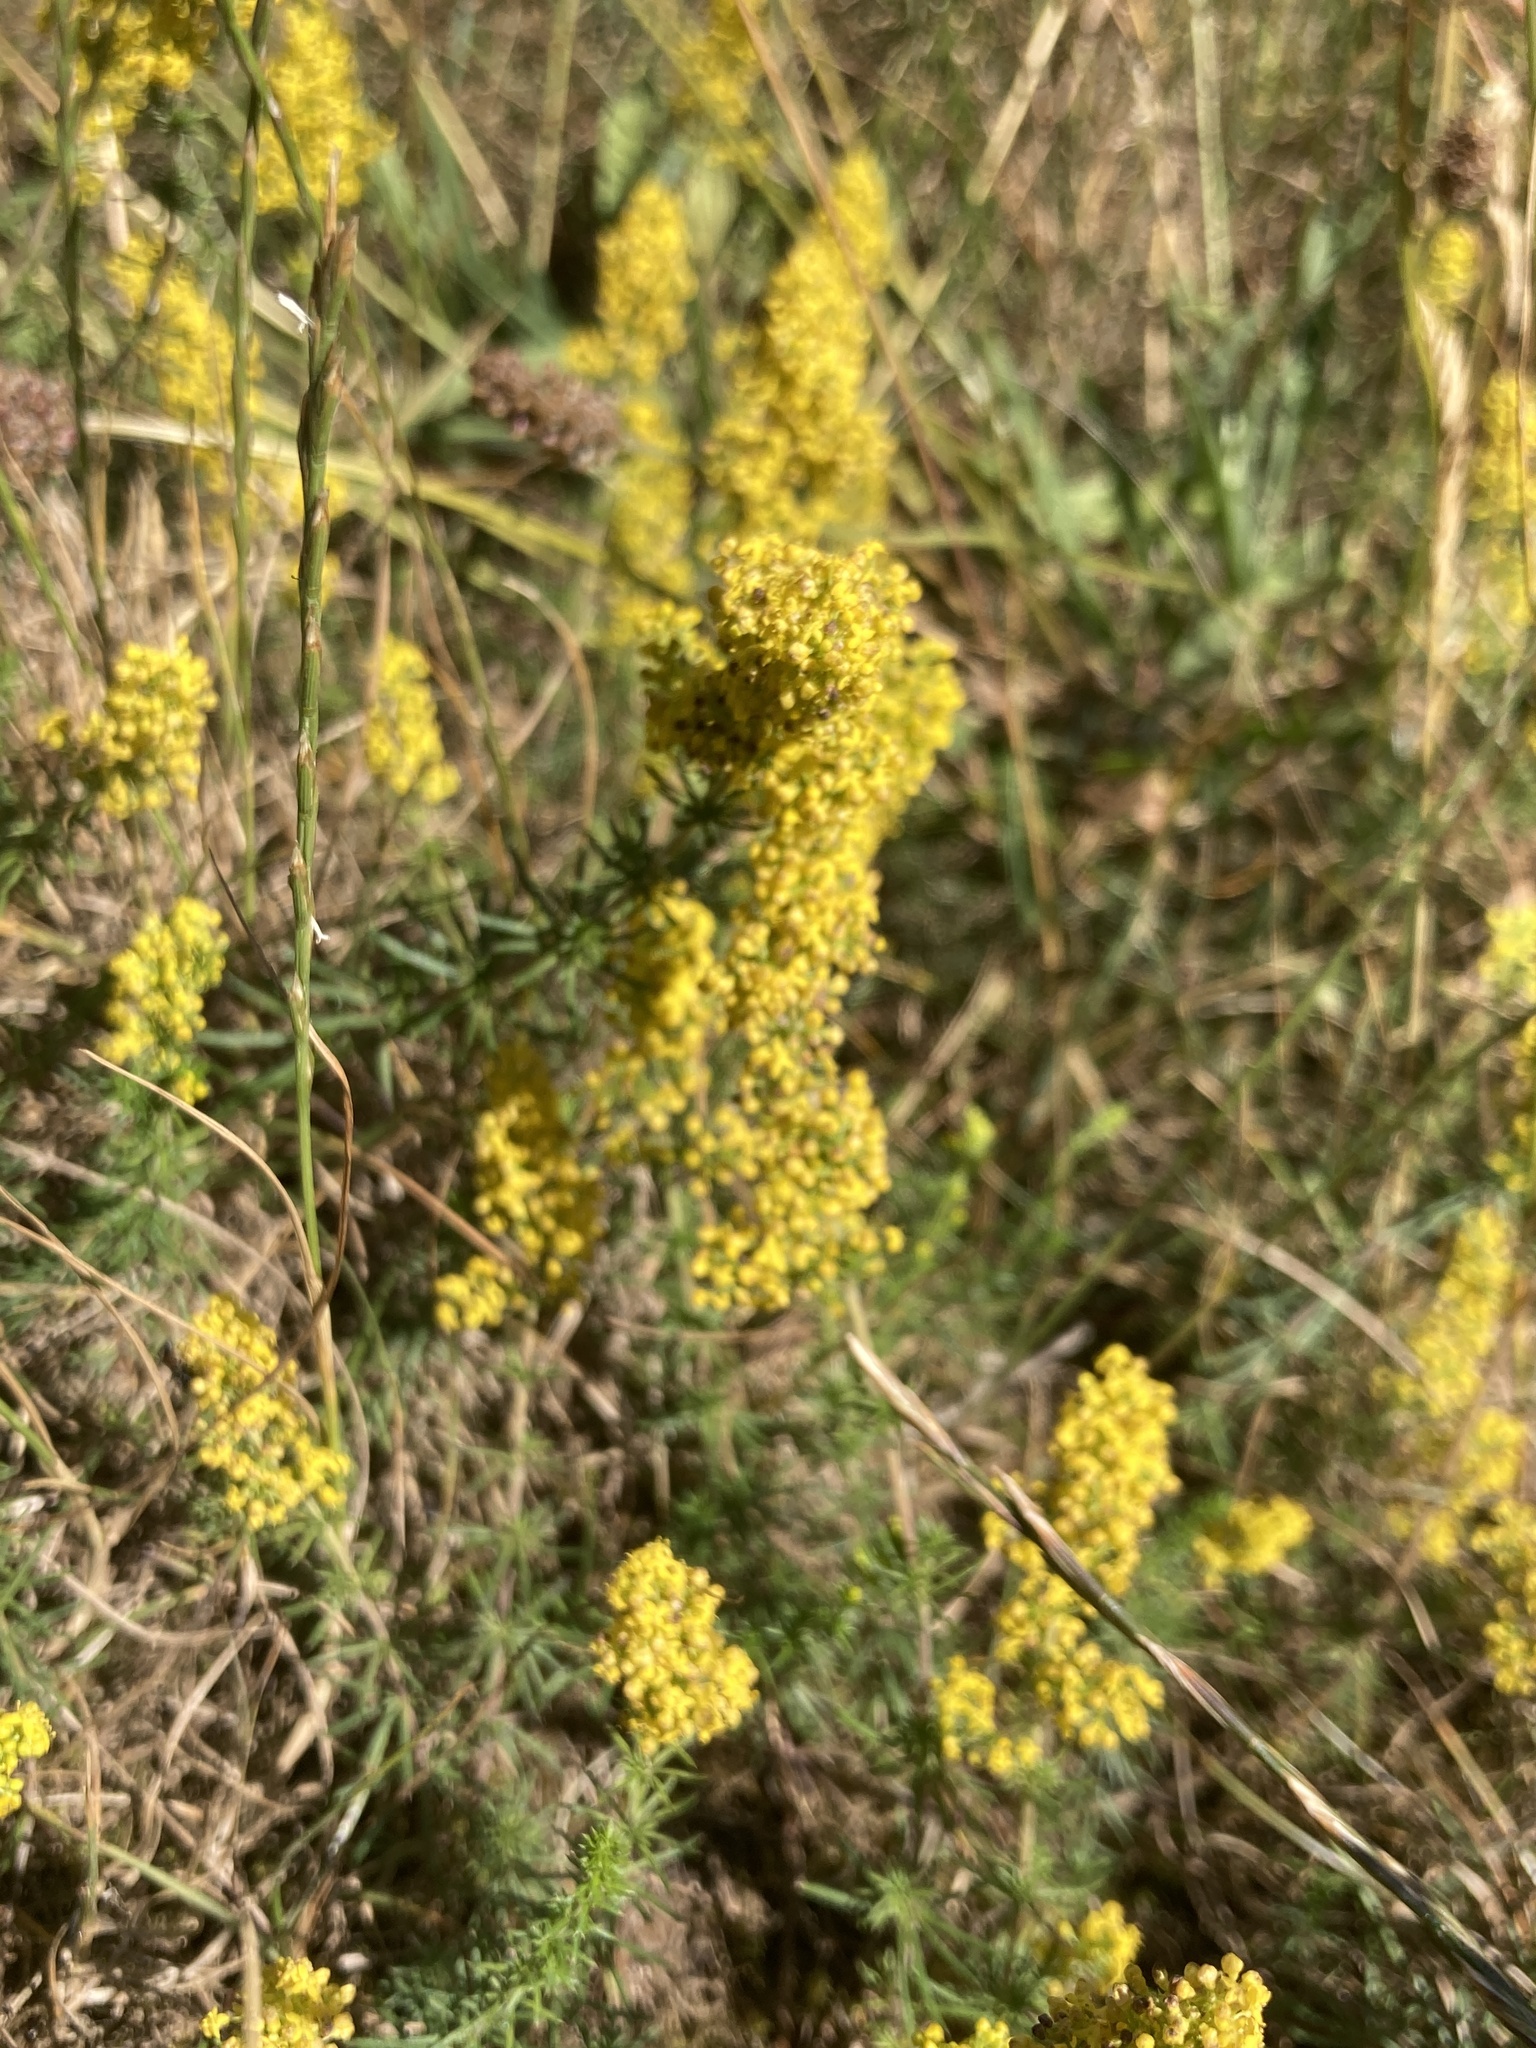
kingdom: Plantae
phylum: Tracheophyta
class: Magnoliopsida
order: Gentianales
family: Rubiaceae
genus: Galium
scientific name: Galium verum
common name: Lady's bedstraw
